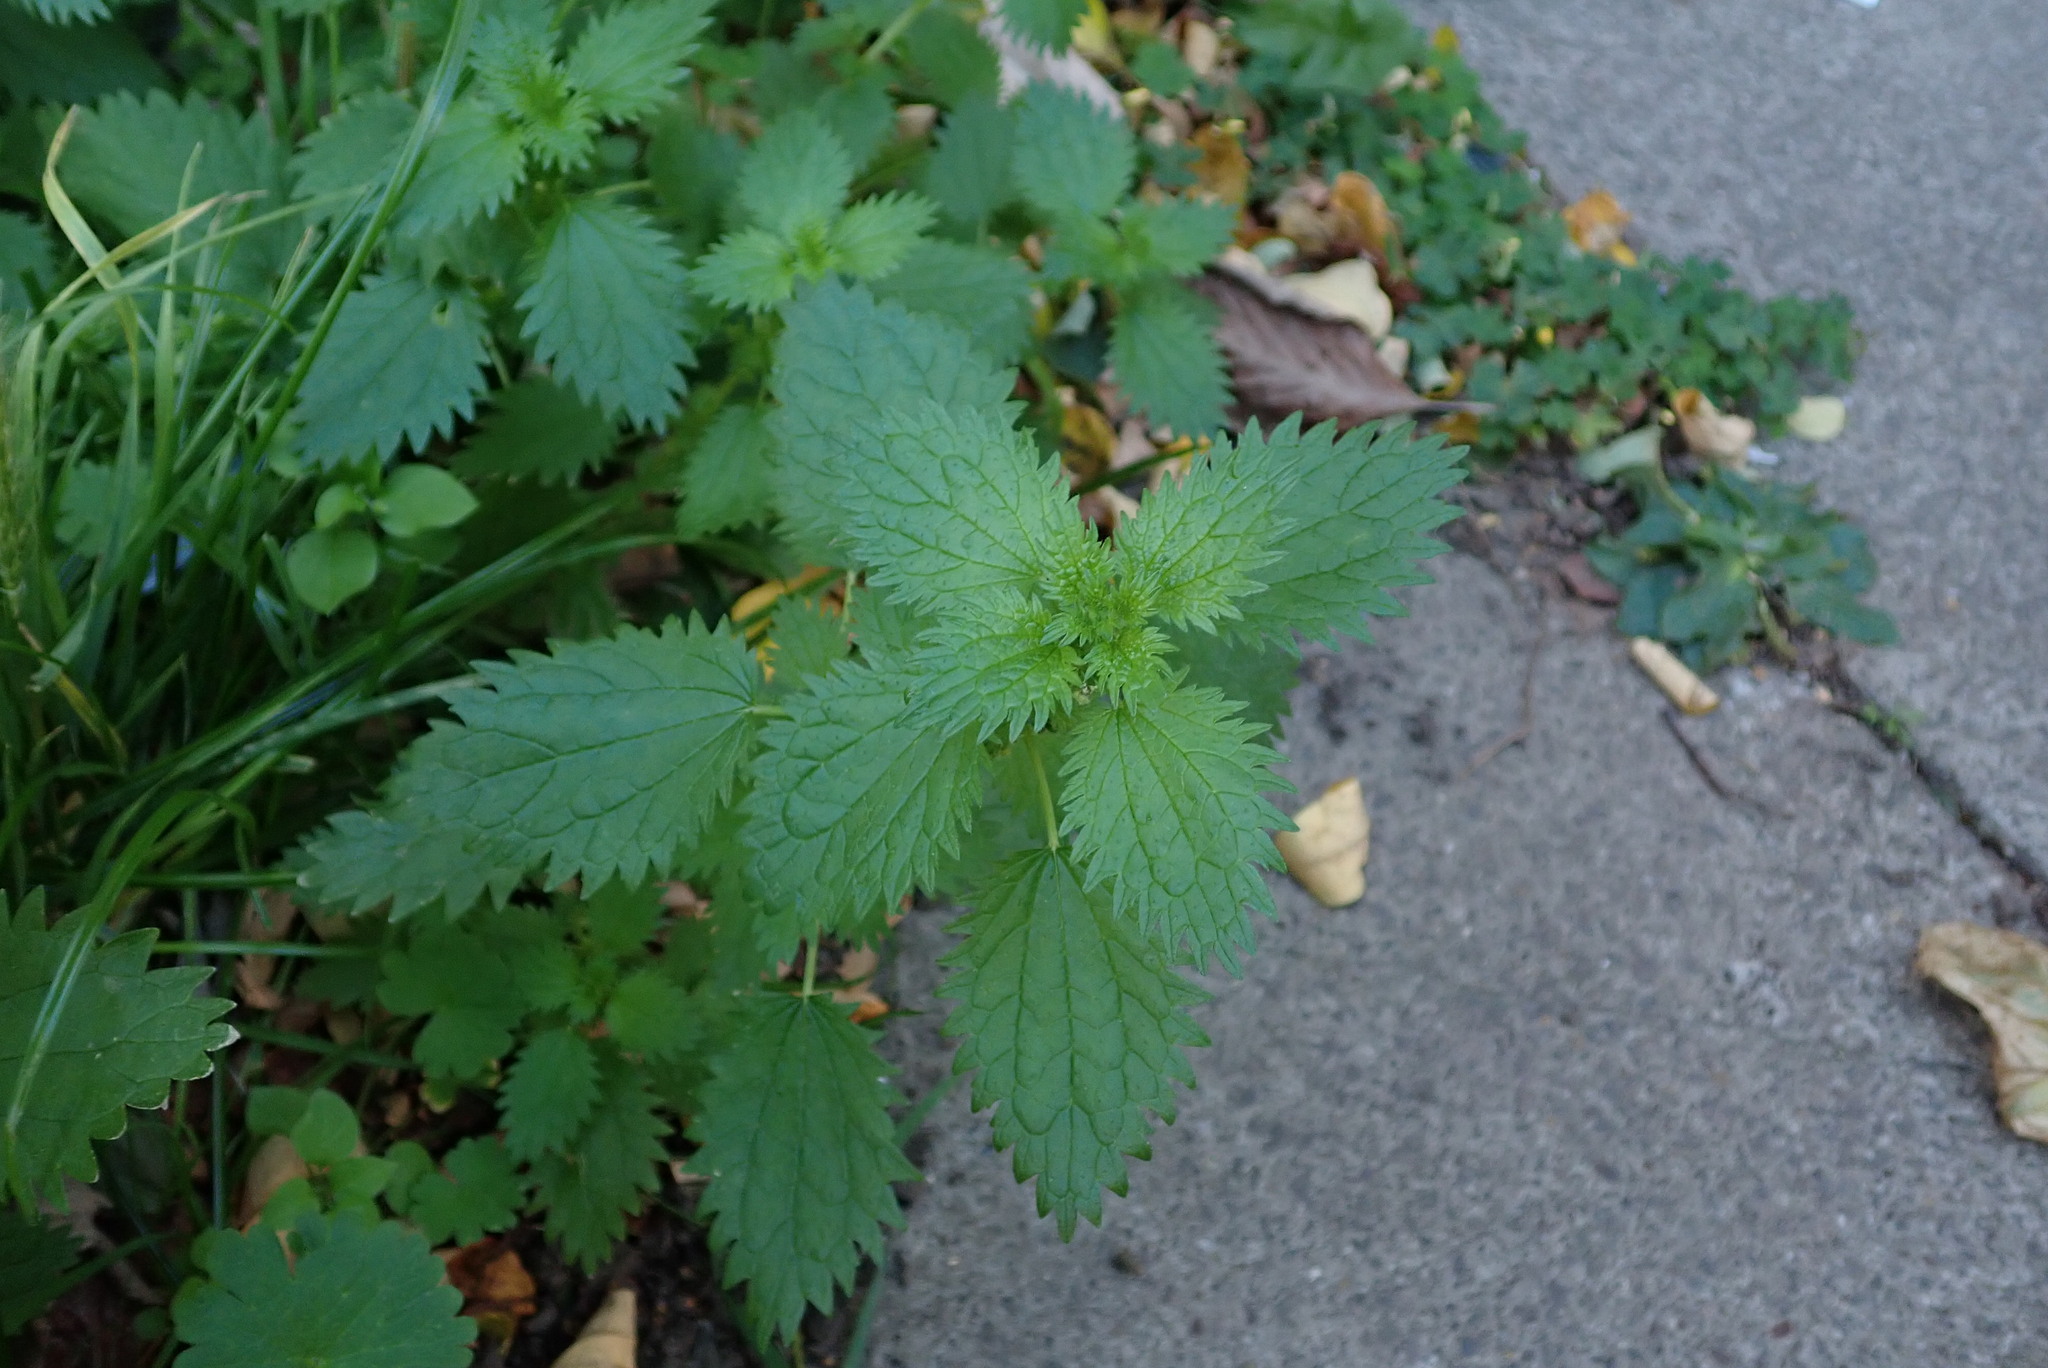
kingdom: Plantae
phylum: Tracheophyta
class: Magnoliopsida
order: Rosales
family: Urticaceae
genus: Urtica
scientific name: Urtica urens
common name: Dwarf nettle
